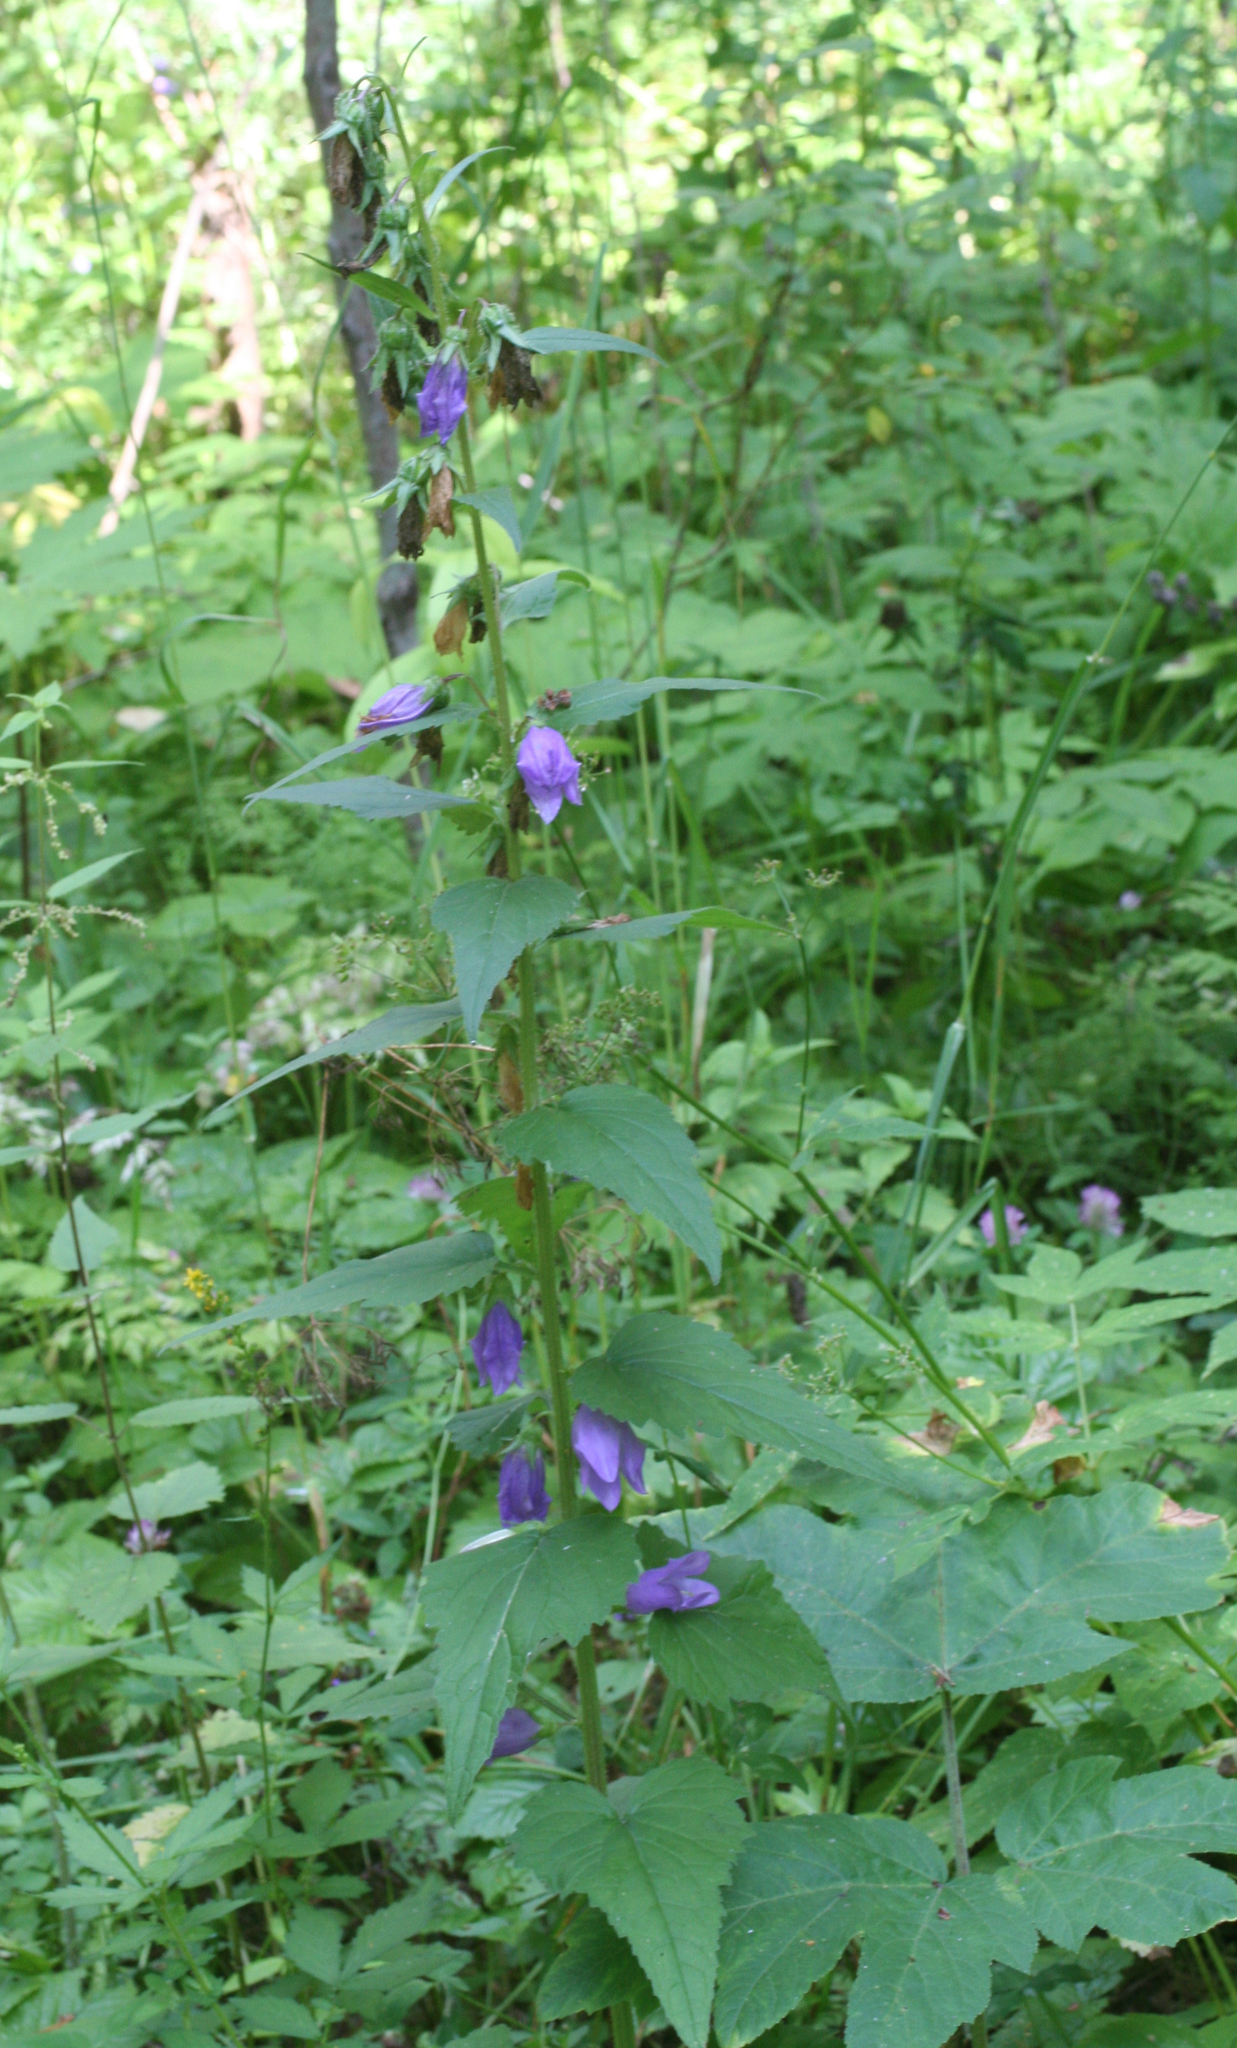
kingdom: Plantae
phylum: Tracheophyta
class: Magnoliopsida
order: Asterales
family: Campanulaceae
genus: Campanula
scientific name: Campanula trachelium
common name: Nettle-leaved bellflower
